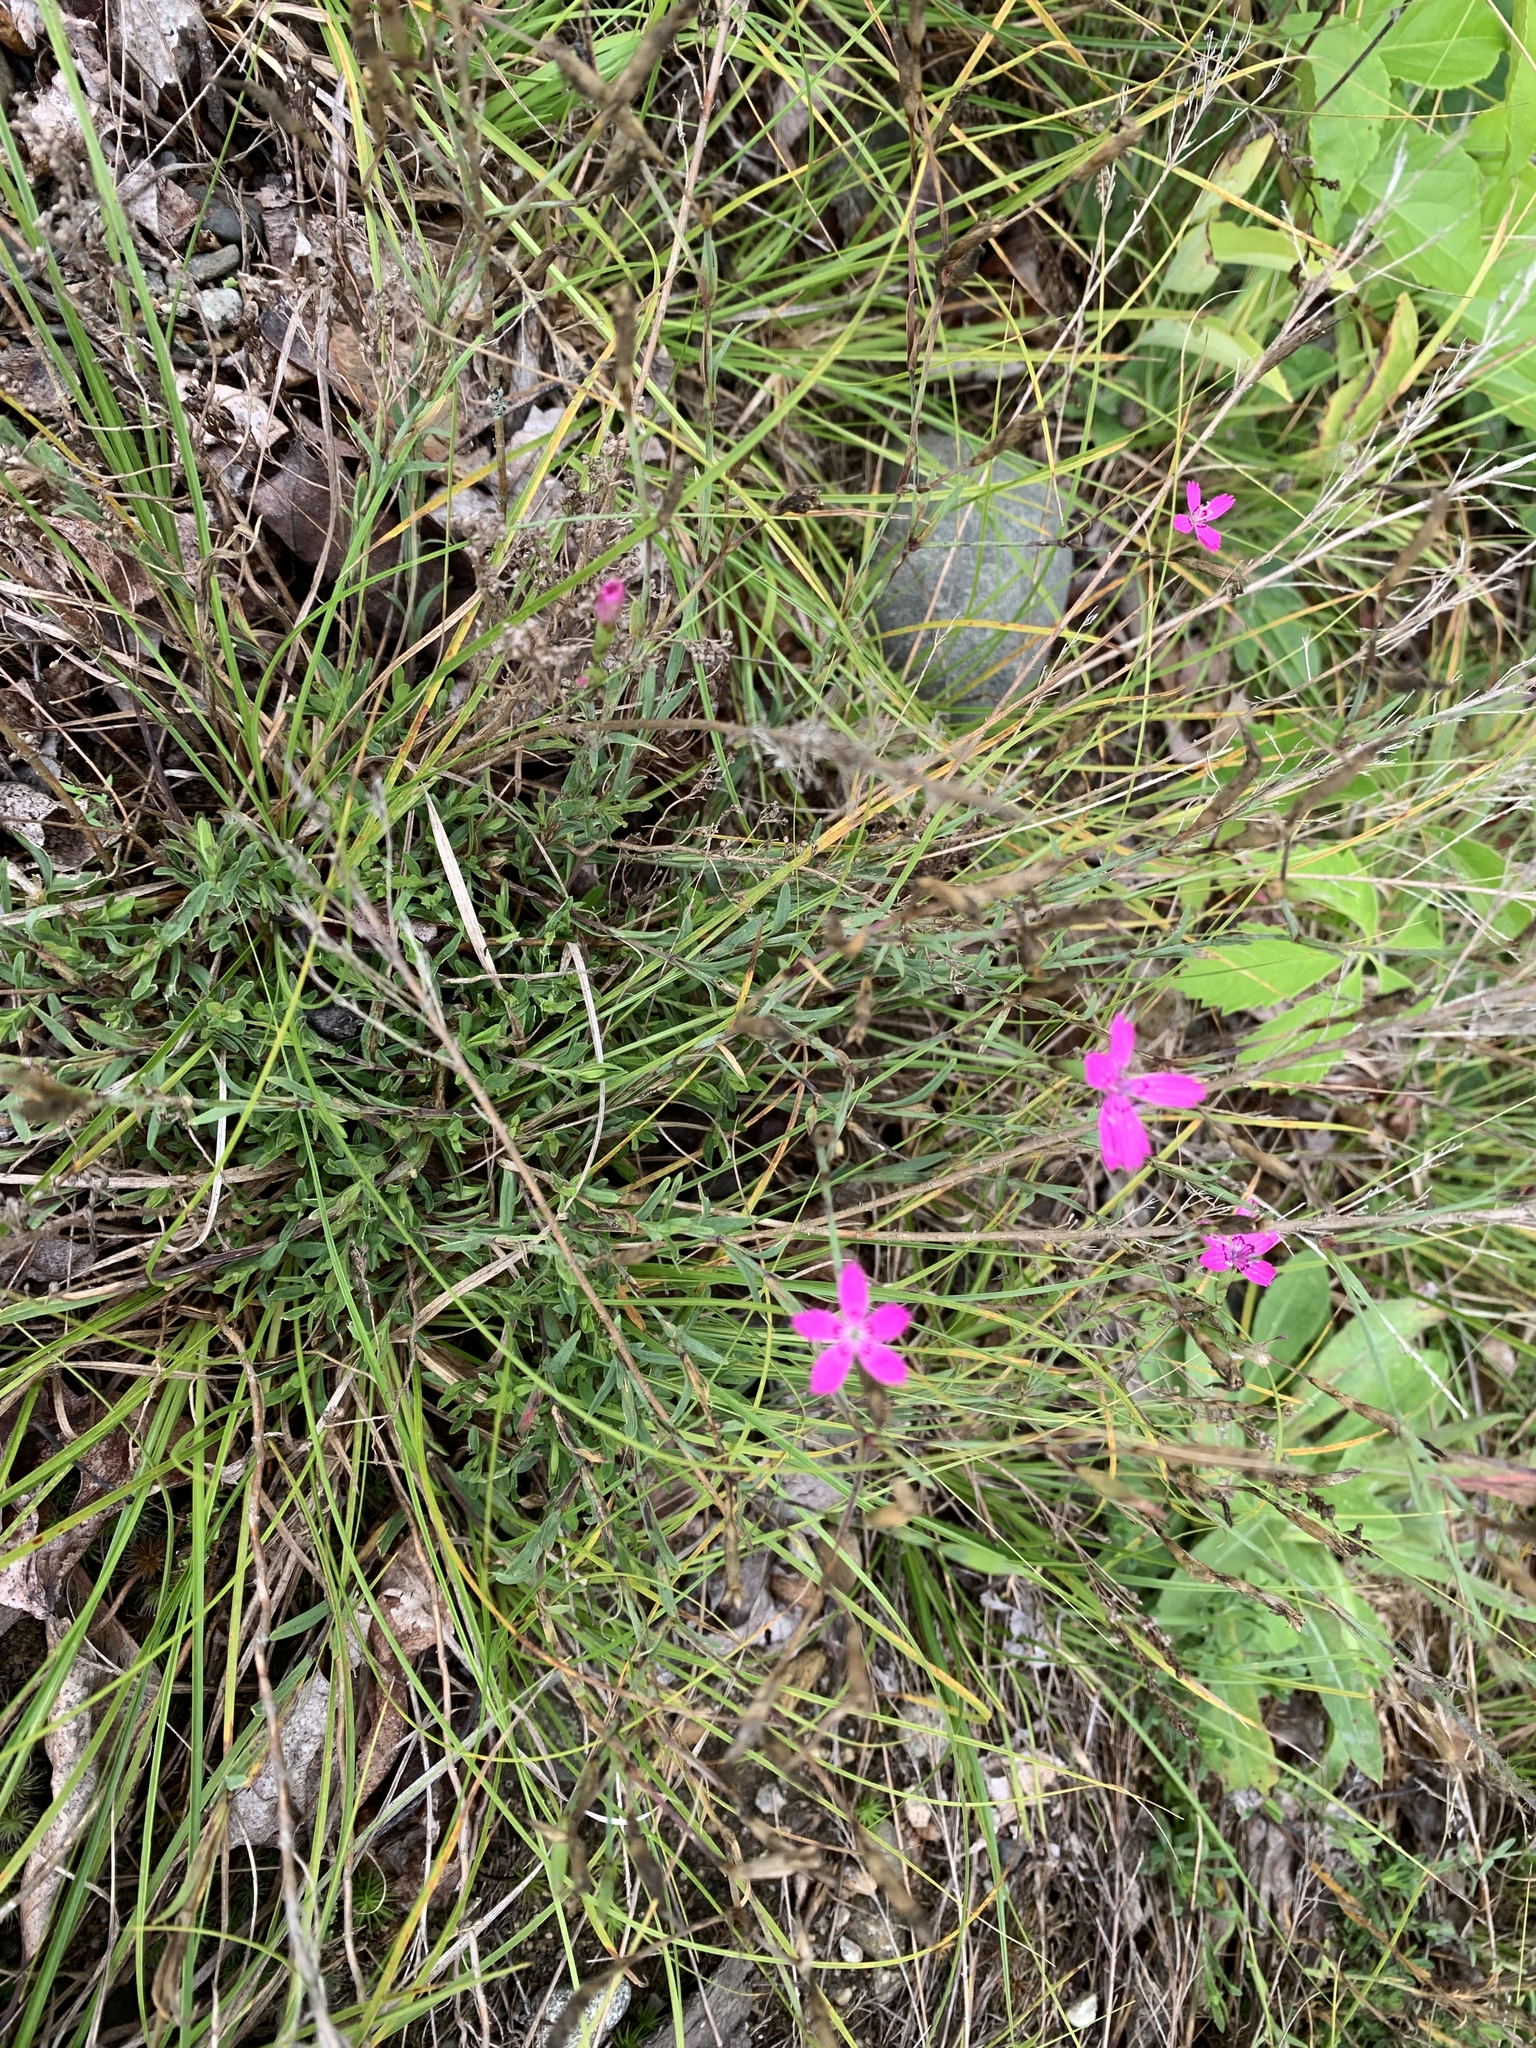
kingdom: Plantae
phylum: Tracheophyta
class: Magnoliopsida
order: Caryophyllales
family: Caryophyllaceae
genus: Dianthus
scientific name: Dianthus deltoides
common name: Maiden pink
